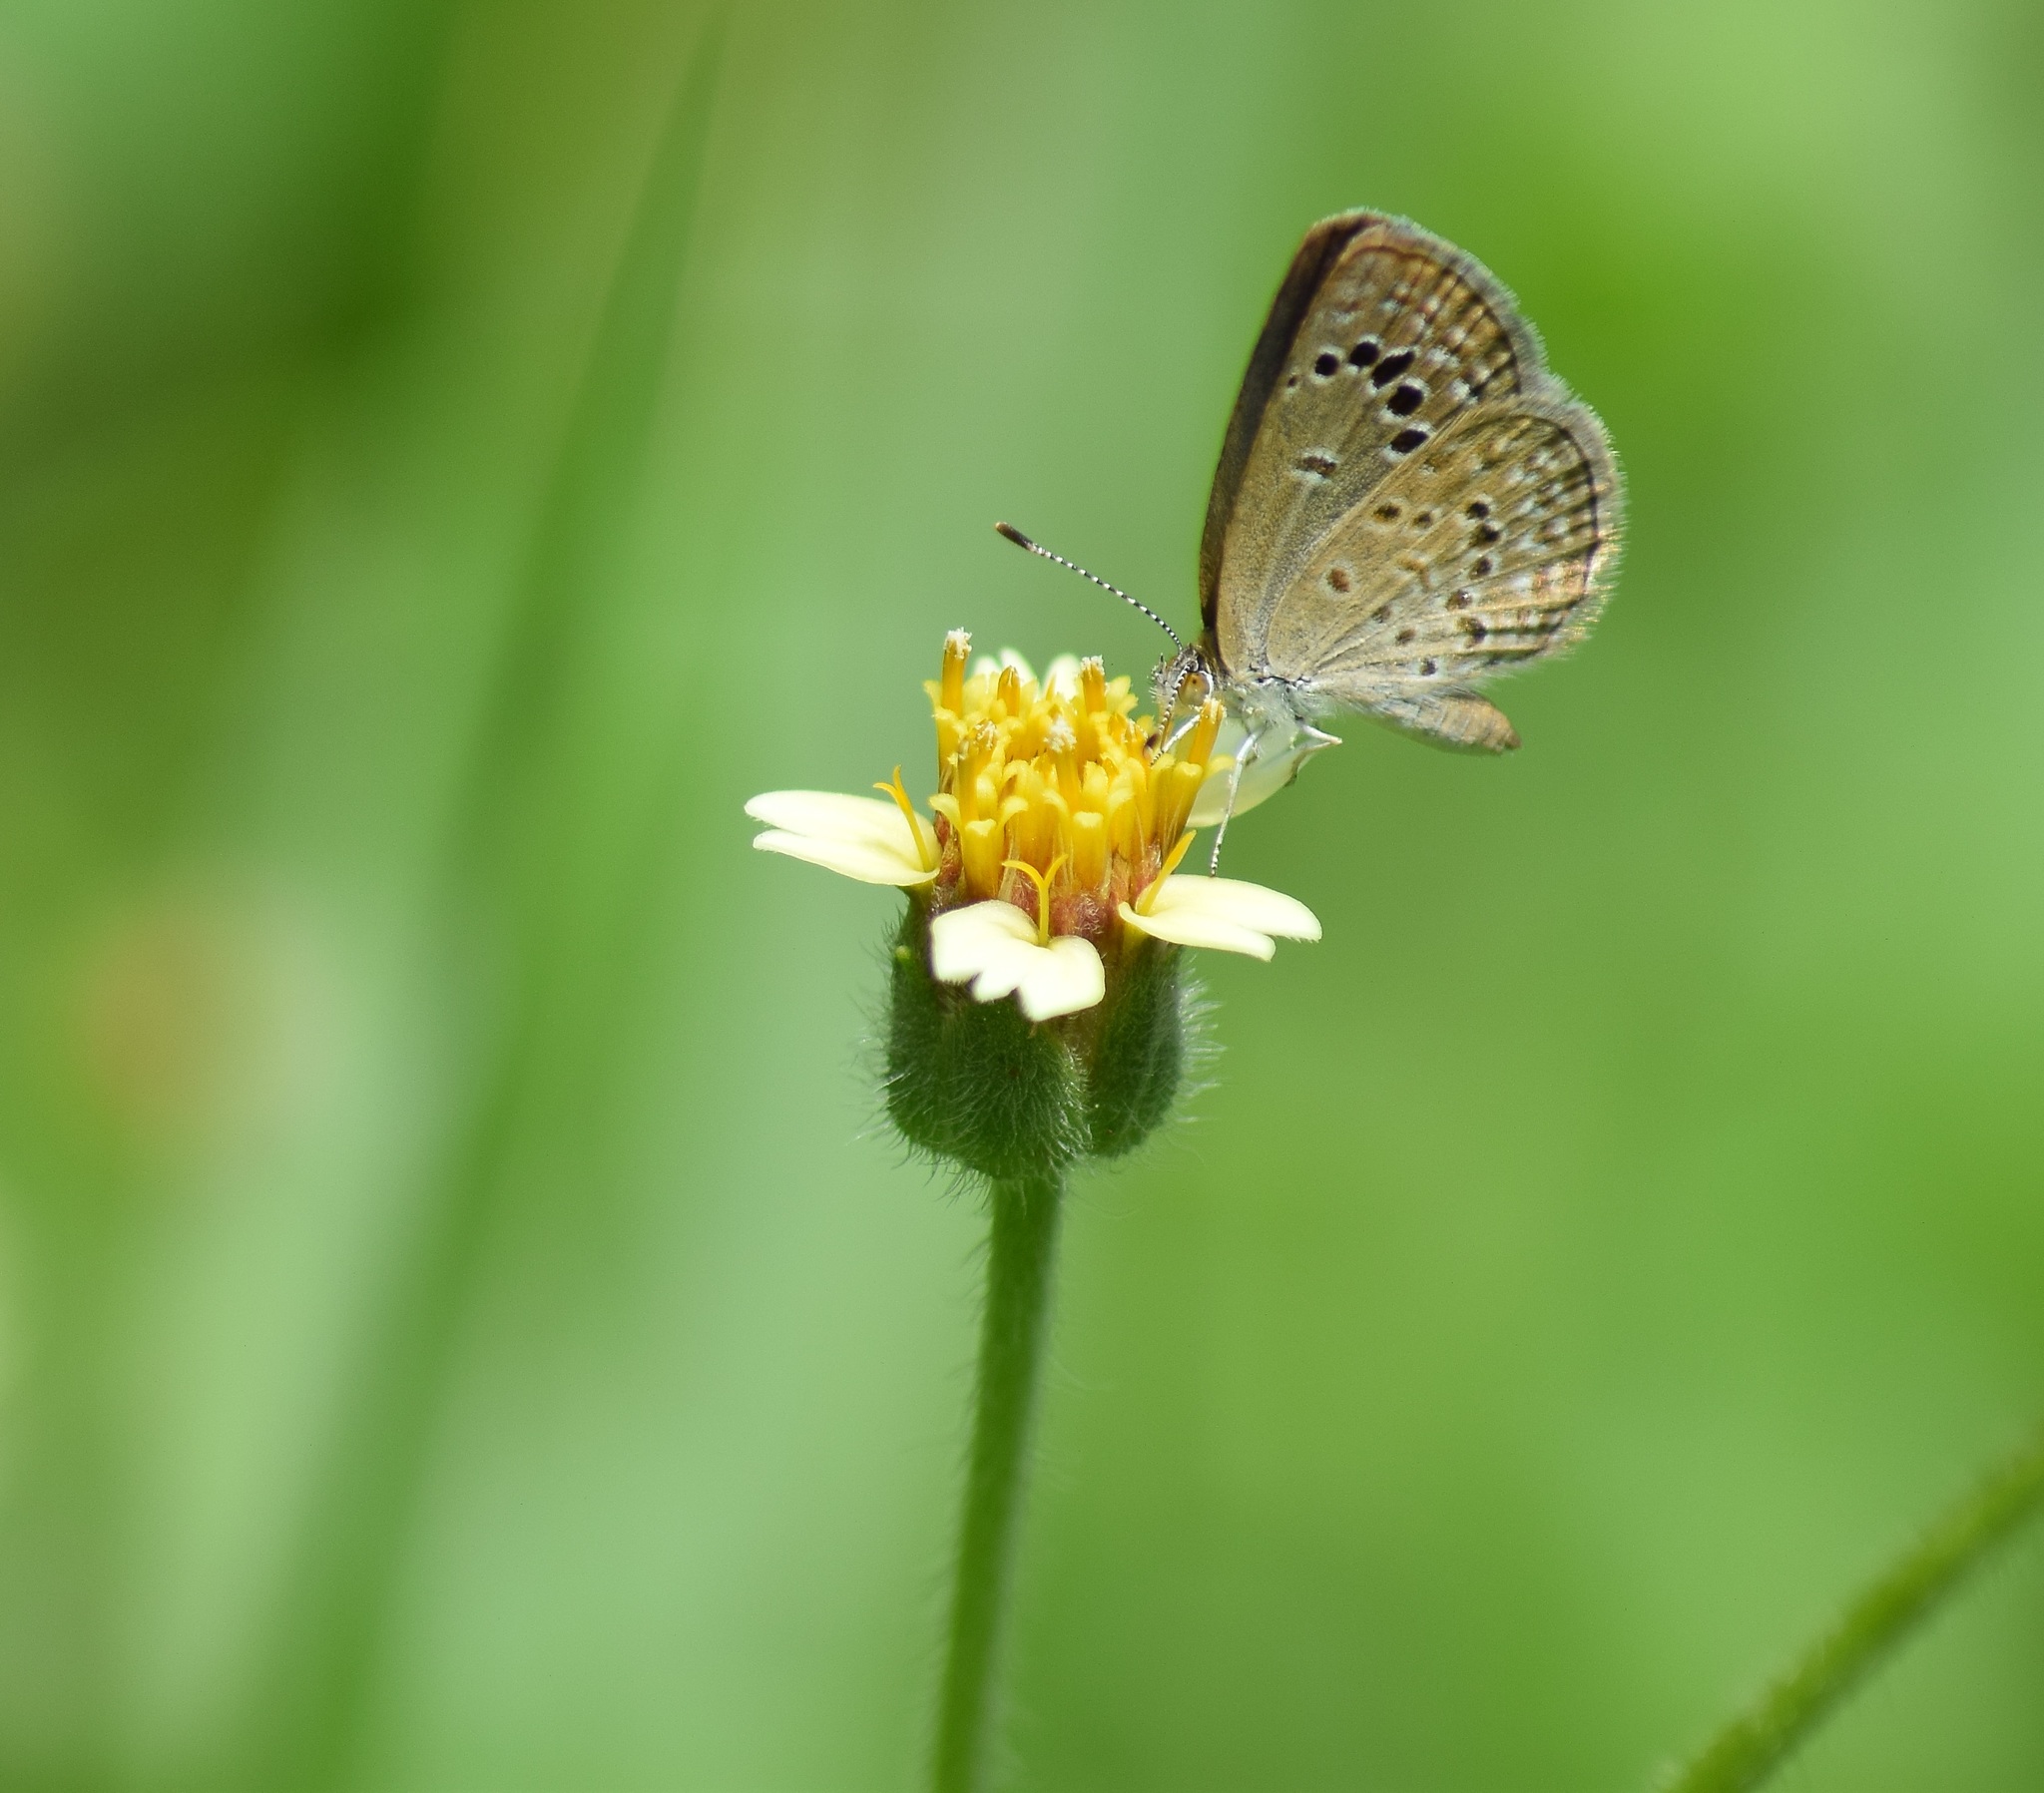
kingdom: Animalia
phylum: Arthropoda
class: Insecta
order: Lepidoptera
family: Lycaenidae
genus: Zizina
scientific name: Zizina otis
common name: Lesser grass blue
